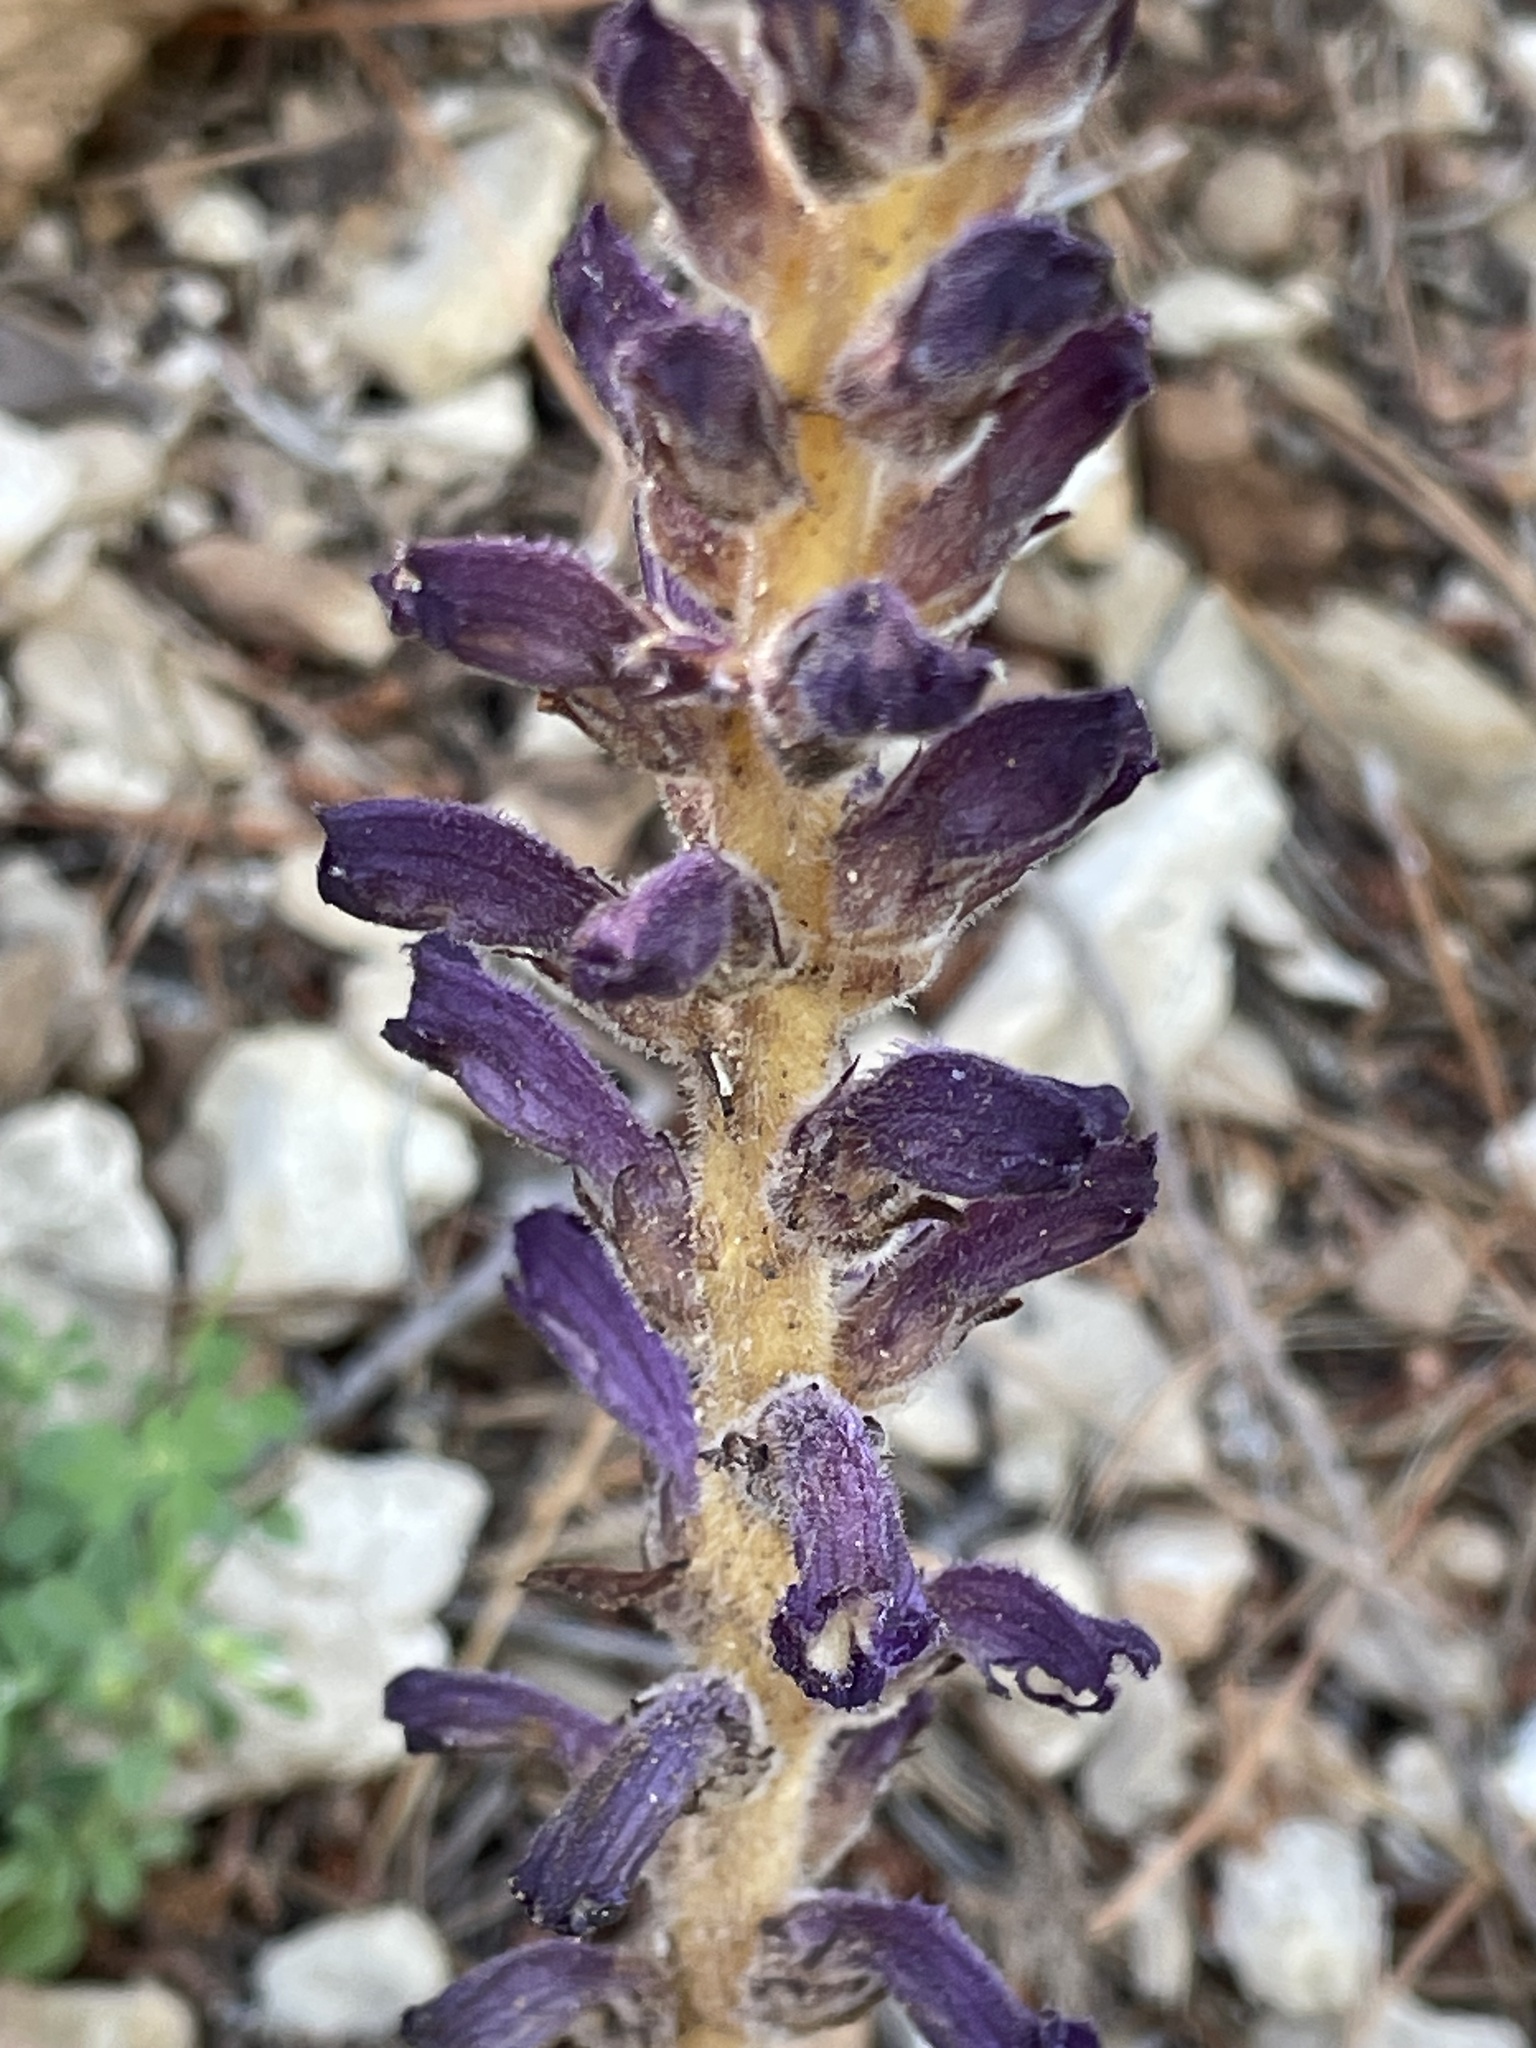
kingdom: Plantae
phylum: Tracheophyta
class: Magnoliopsida
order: Lamiales
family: Orobanchaceae
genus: Orobanche
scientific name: Orobanche pubescens
